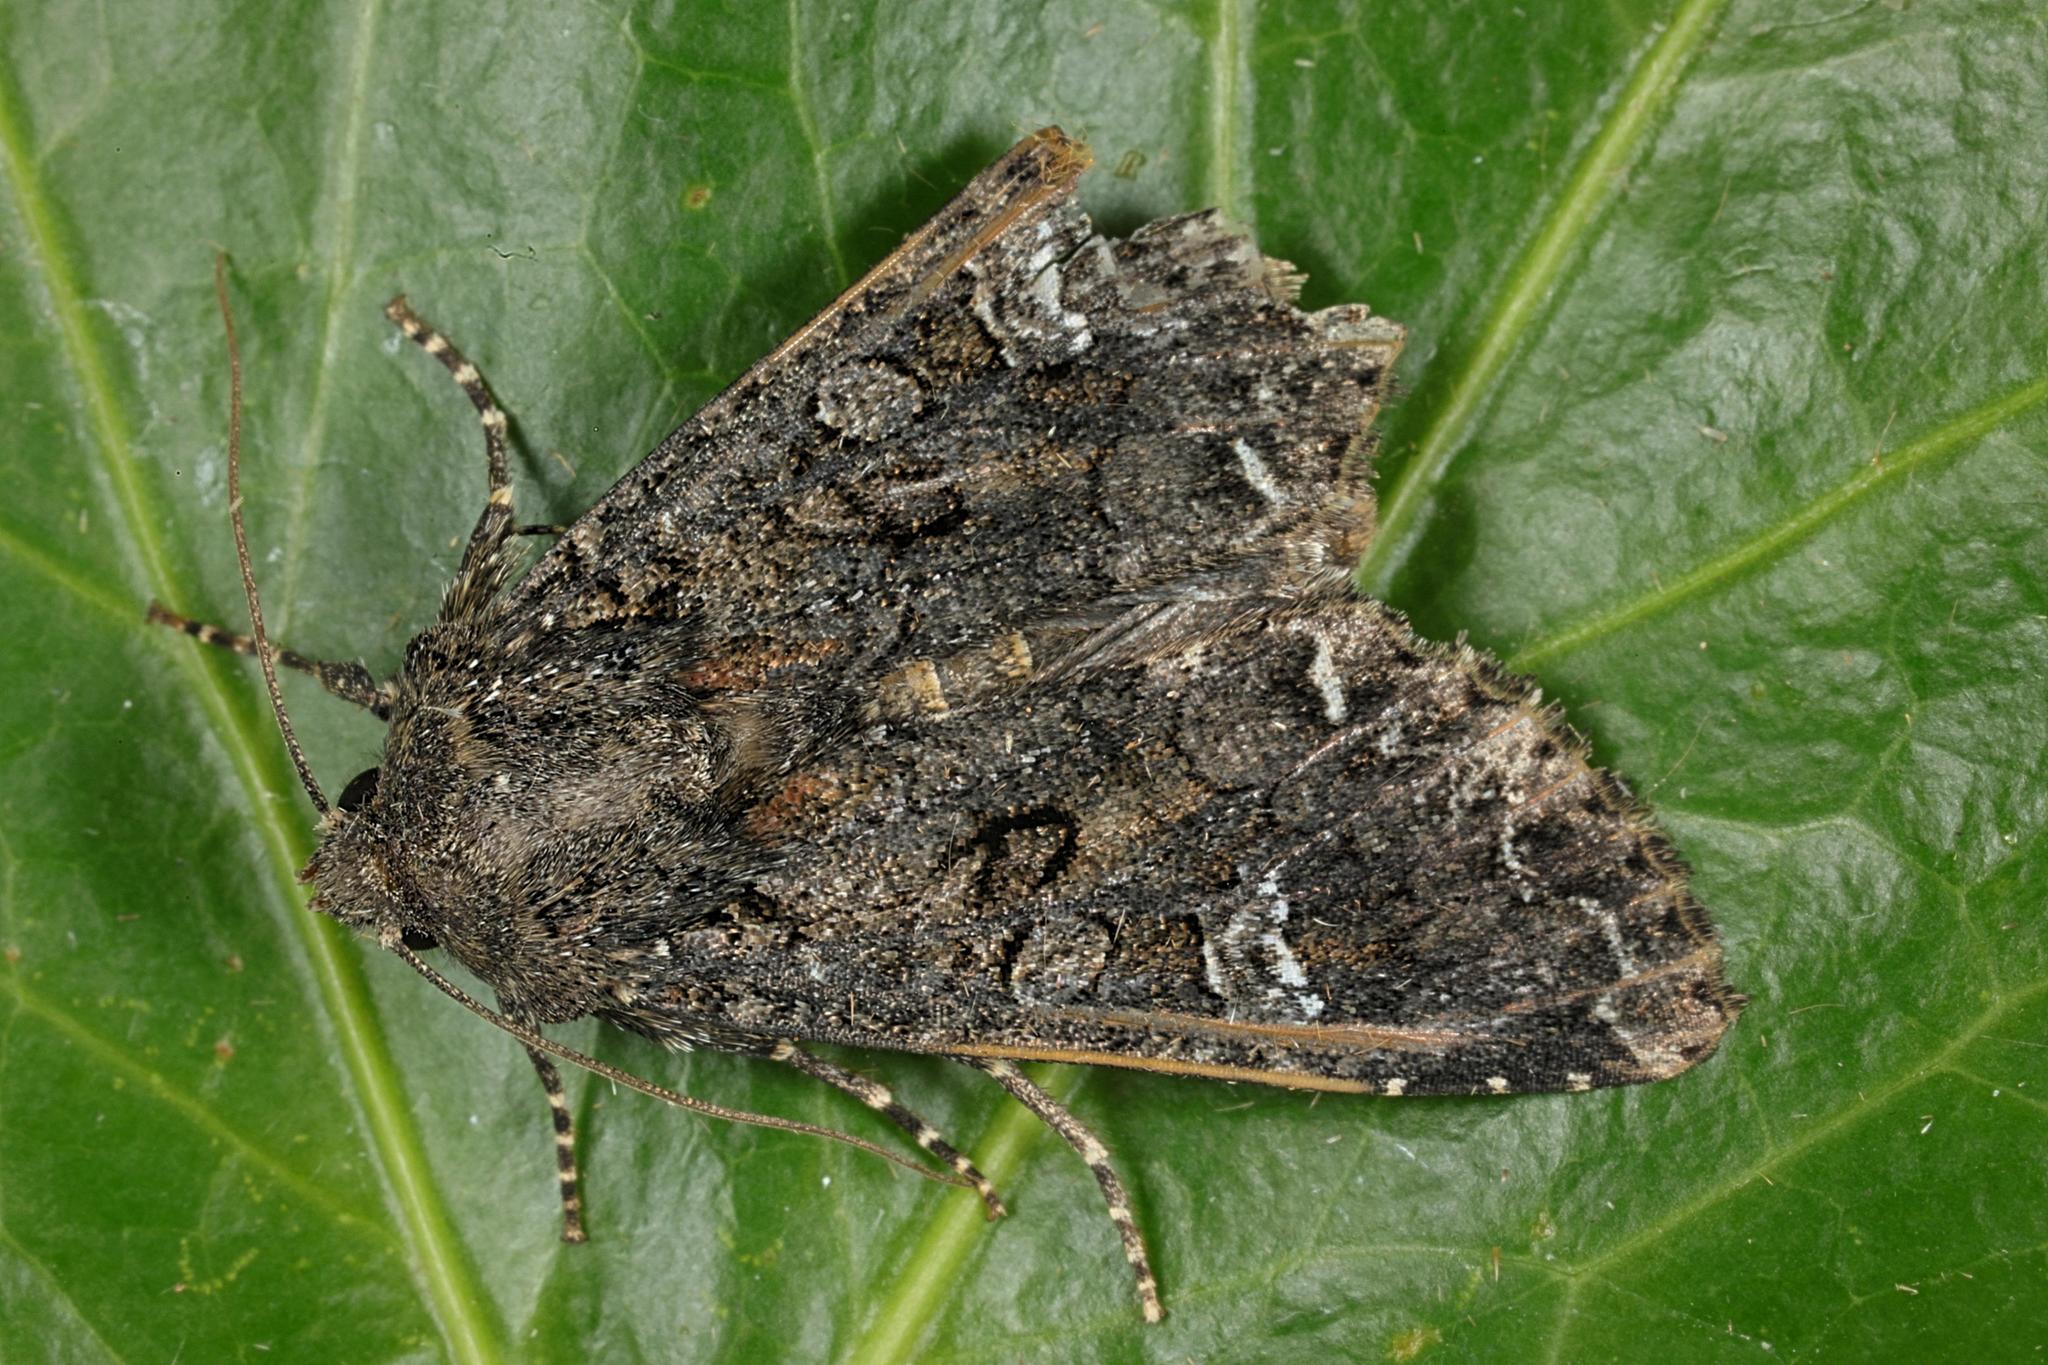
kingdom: Animalia
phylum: Arthropoda
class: Insecta
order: Lepidoptera
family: Noctuidae
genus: Mamestra
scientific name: Mamestra brassicae
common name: Cabbage moth
